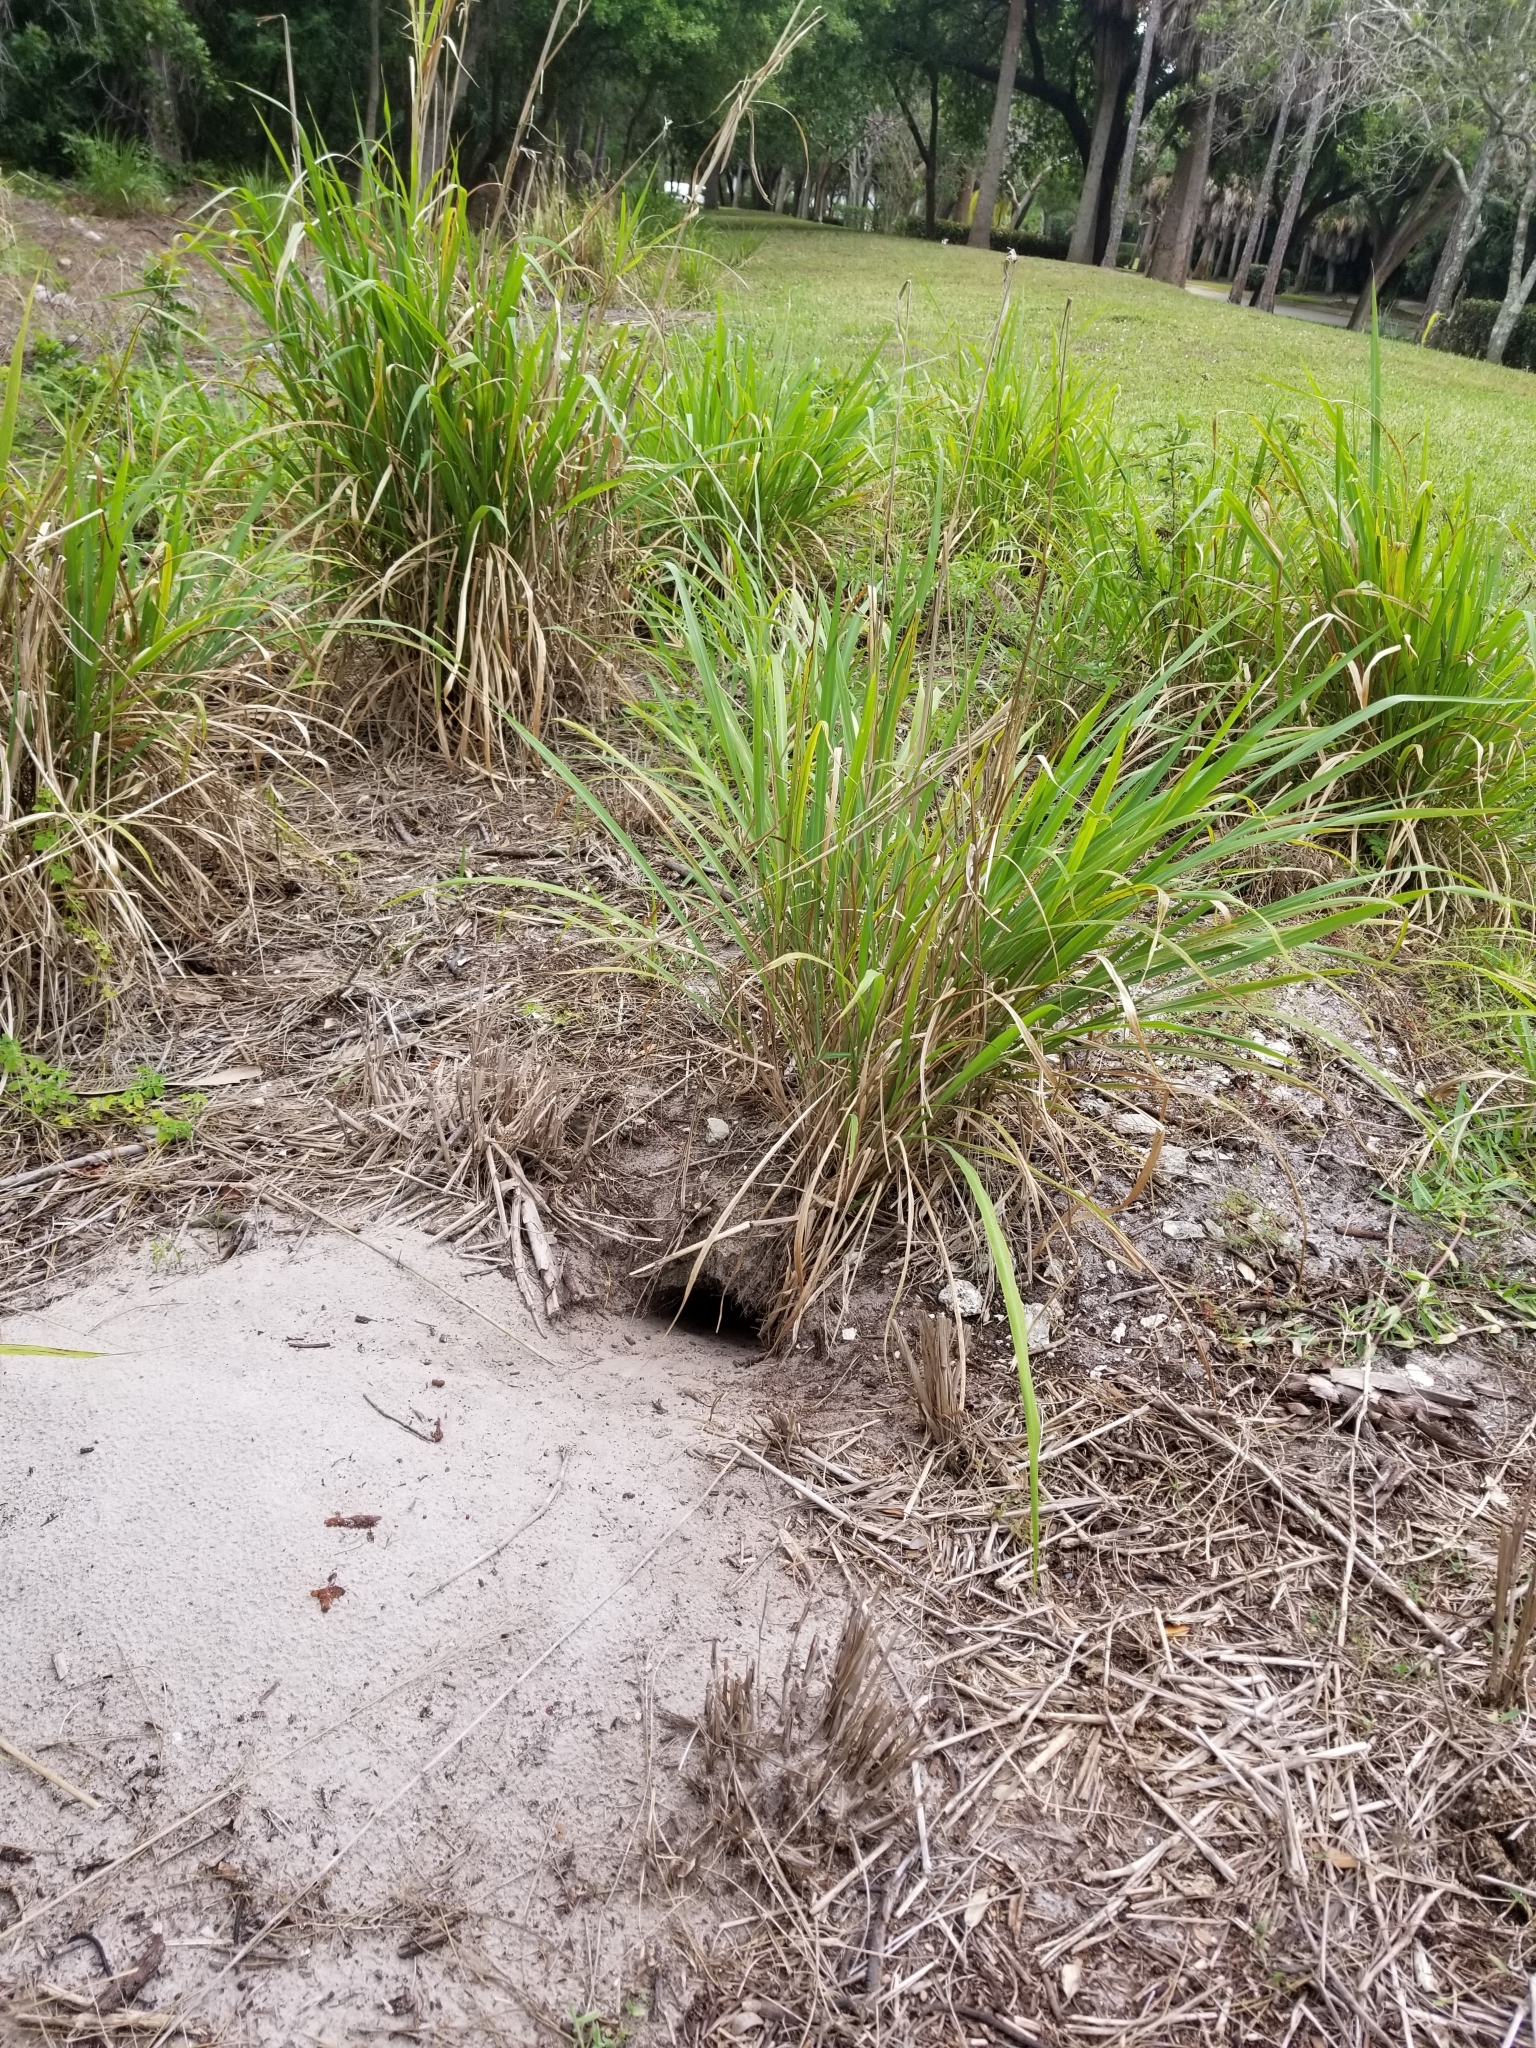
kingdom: Animalia
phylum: Chordata
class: Testudines
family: Testudinidae
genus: Gopherus
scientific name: Gopherus polyphemus
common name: Florida gopher tortoise
